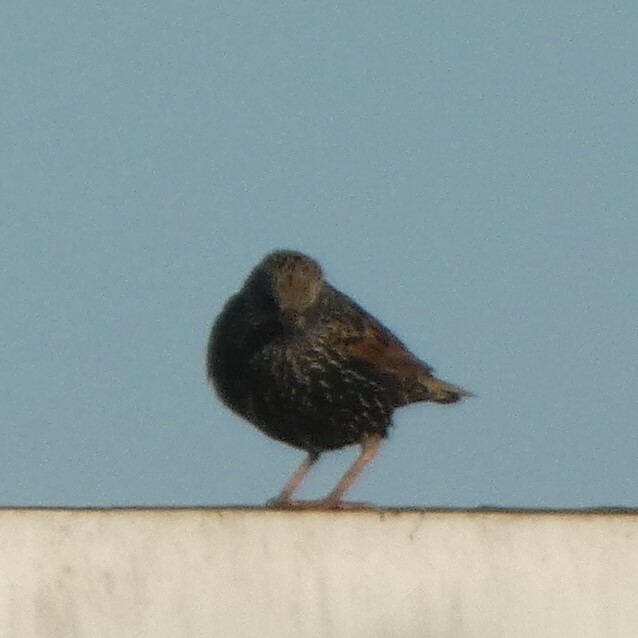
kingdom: Animalia
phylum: Chordata
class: Aves
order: Passeriformes
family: Sturnidae
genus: Sturnus
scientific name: Sturnus vulgaris
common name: Common starling
